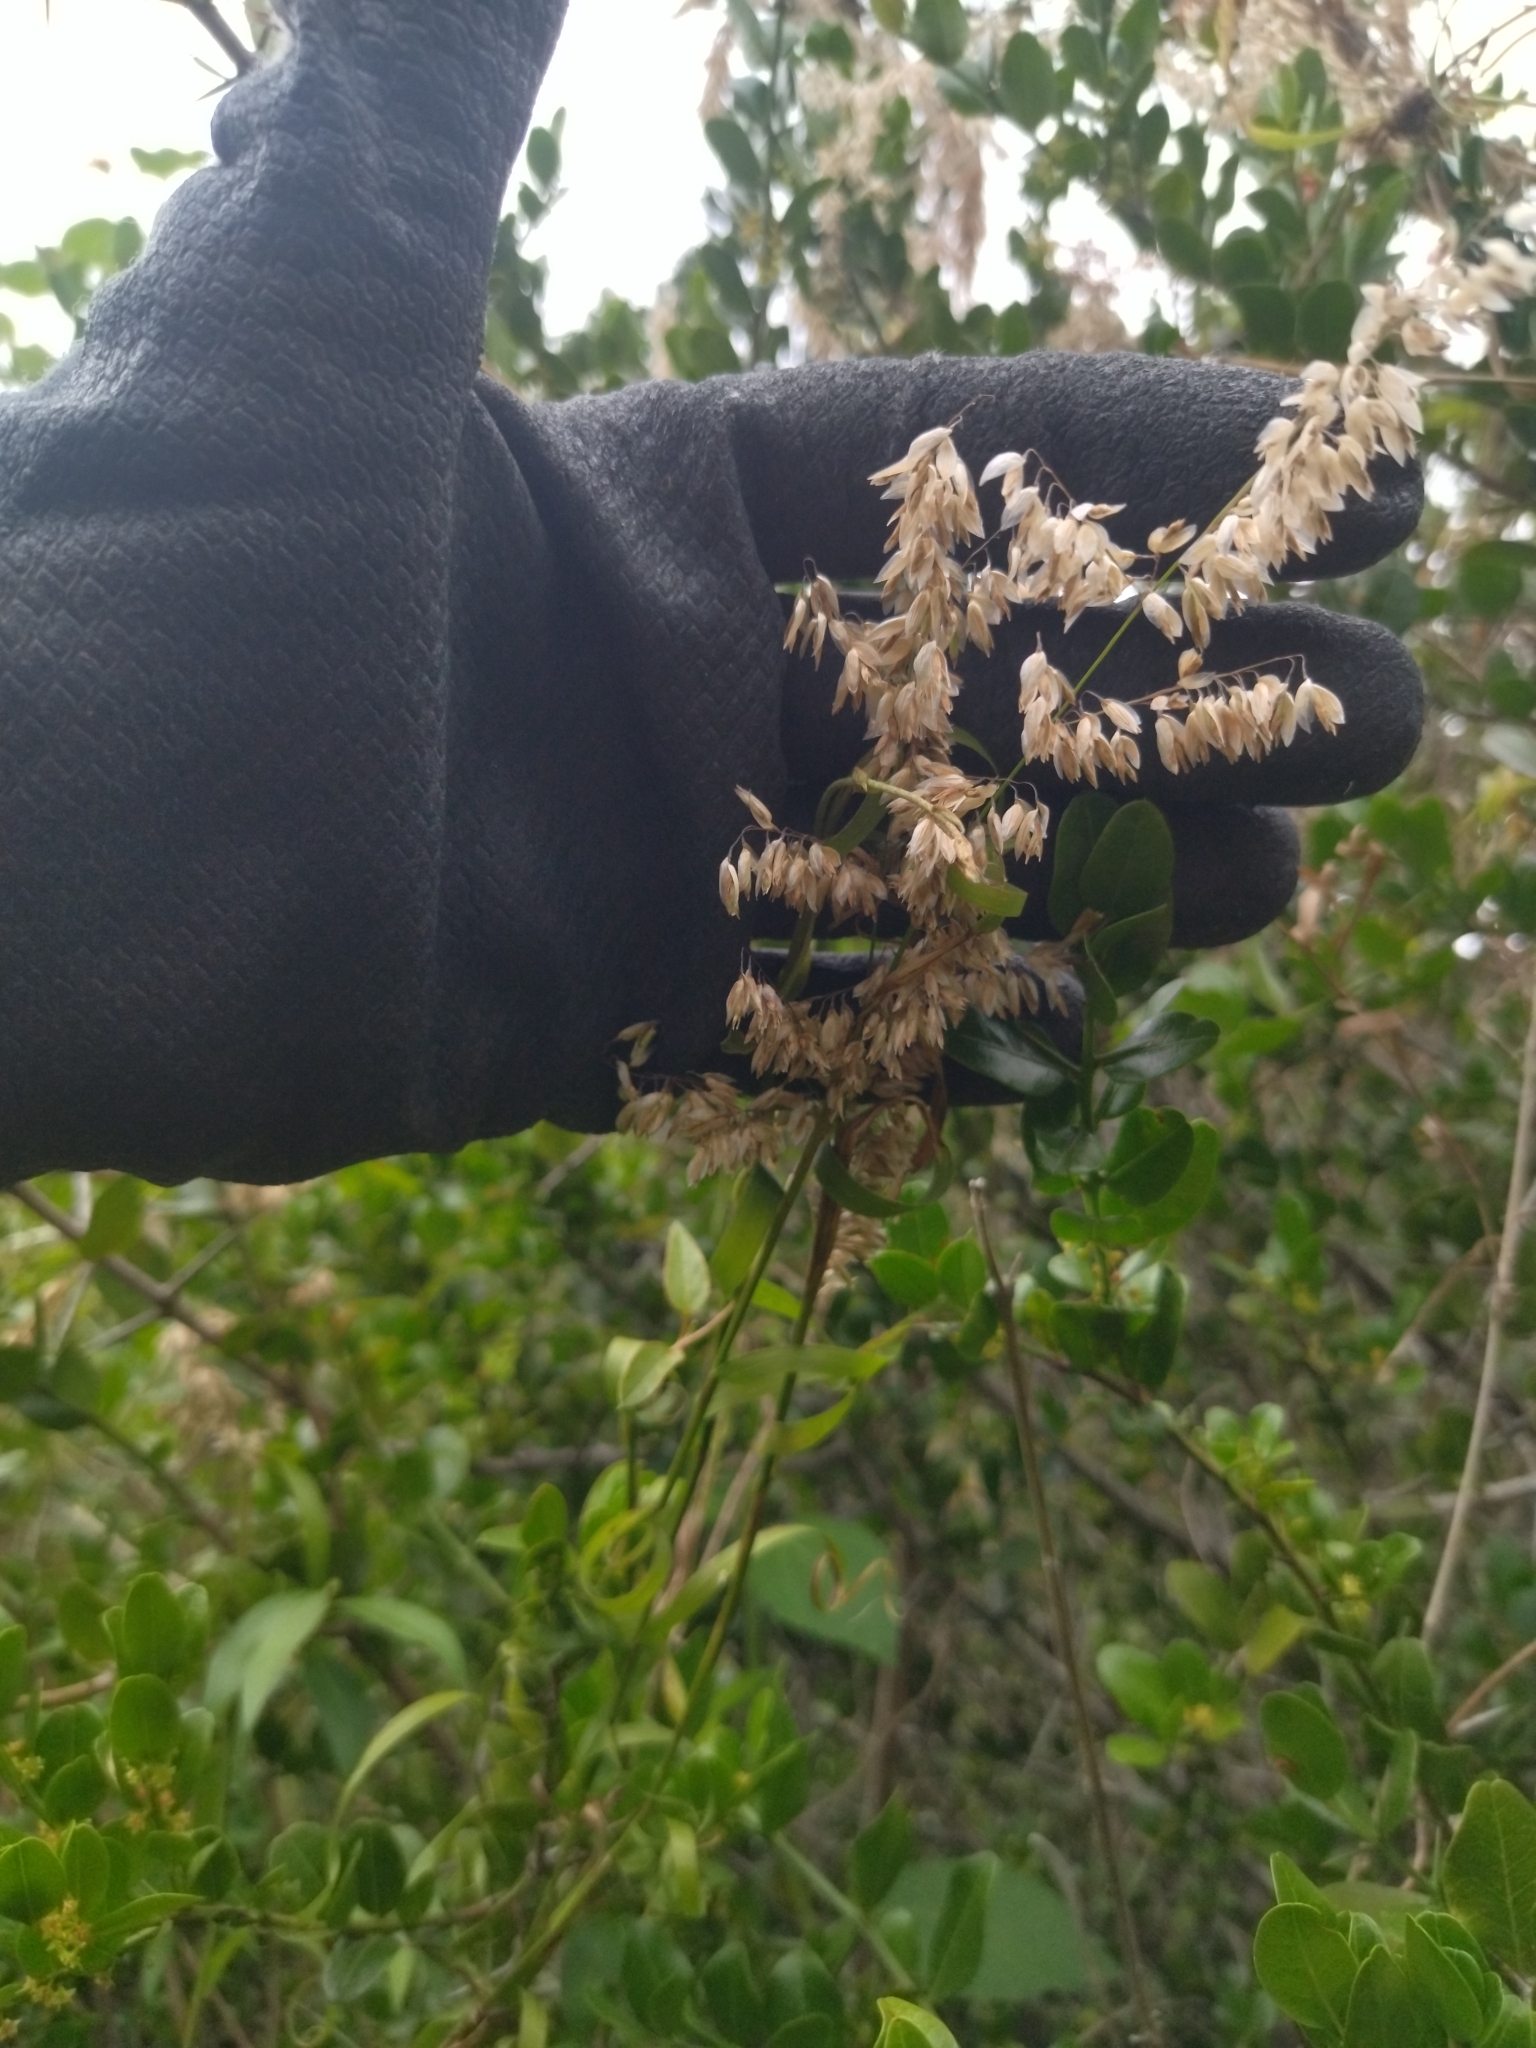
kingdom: Plantae
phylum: Tracheophyta
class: Liliopsida
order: Poales
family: Poaceae
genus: Melica
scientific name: Melica sarmentosa
